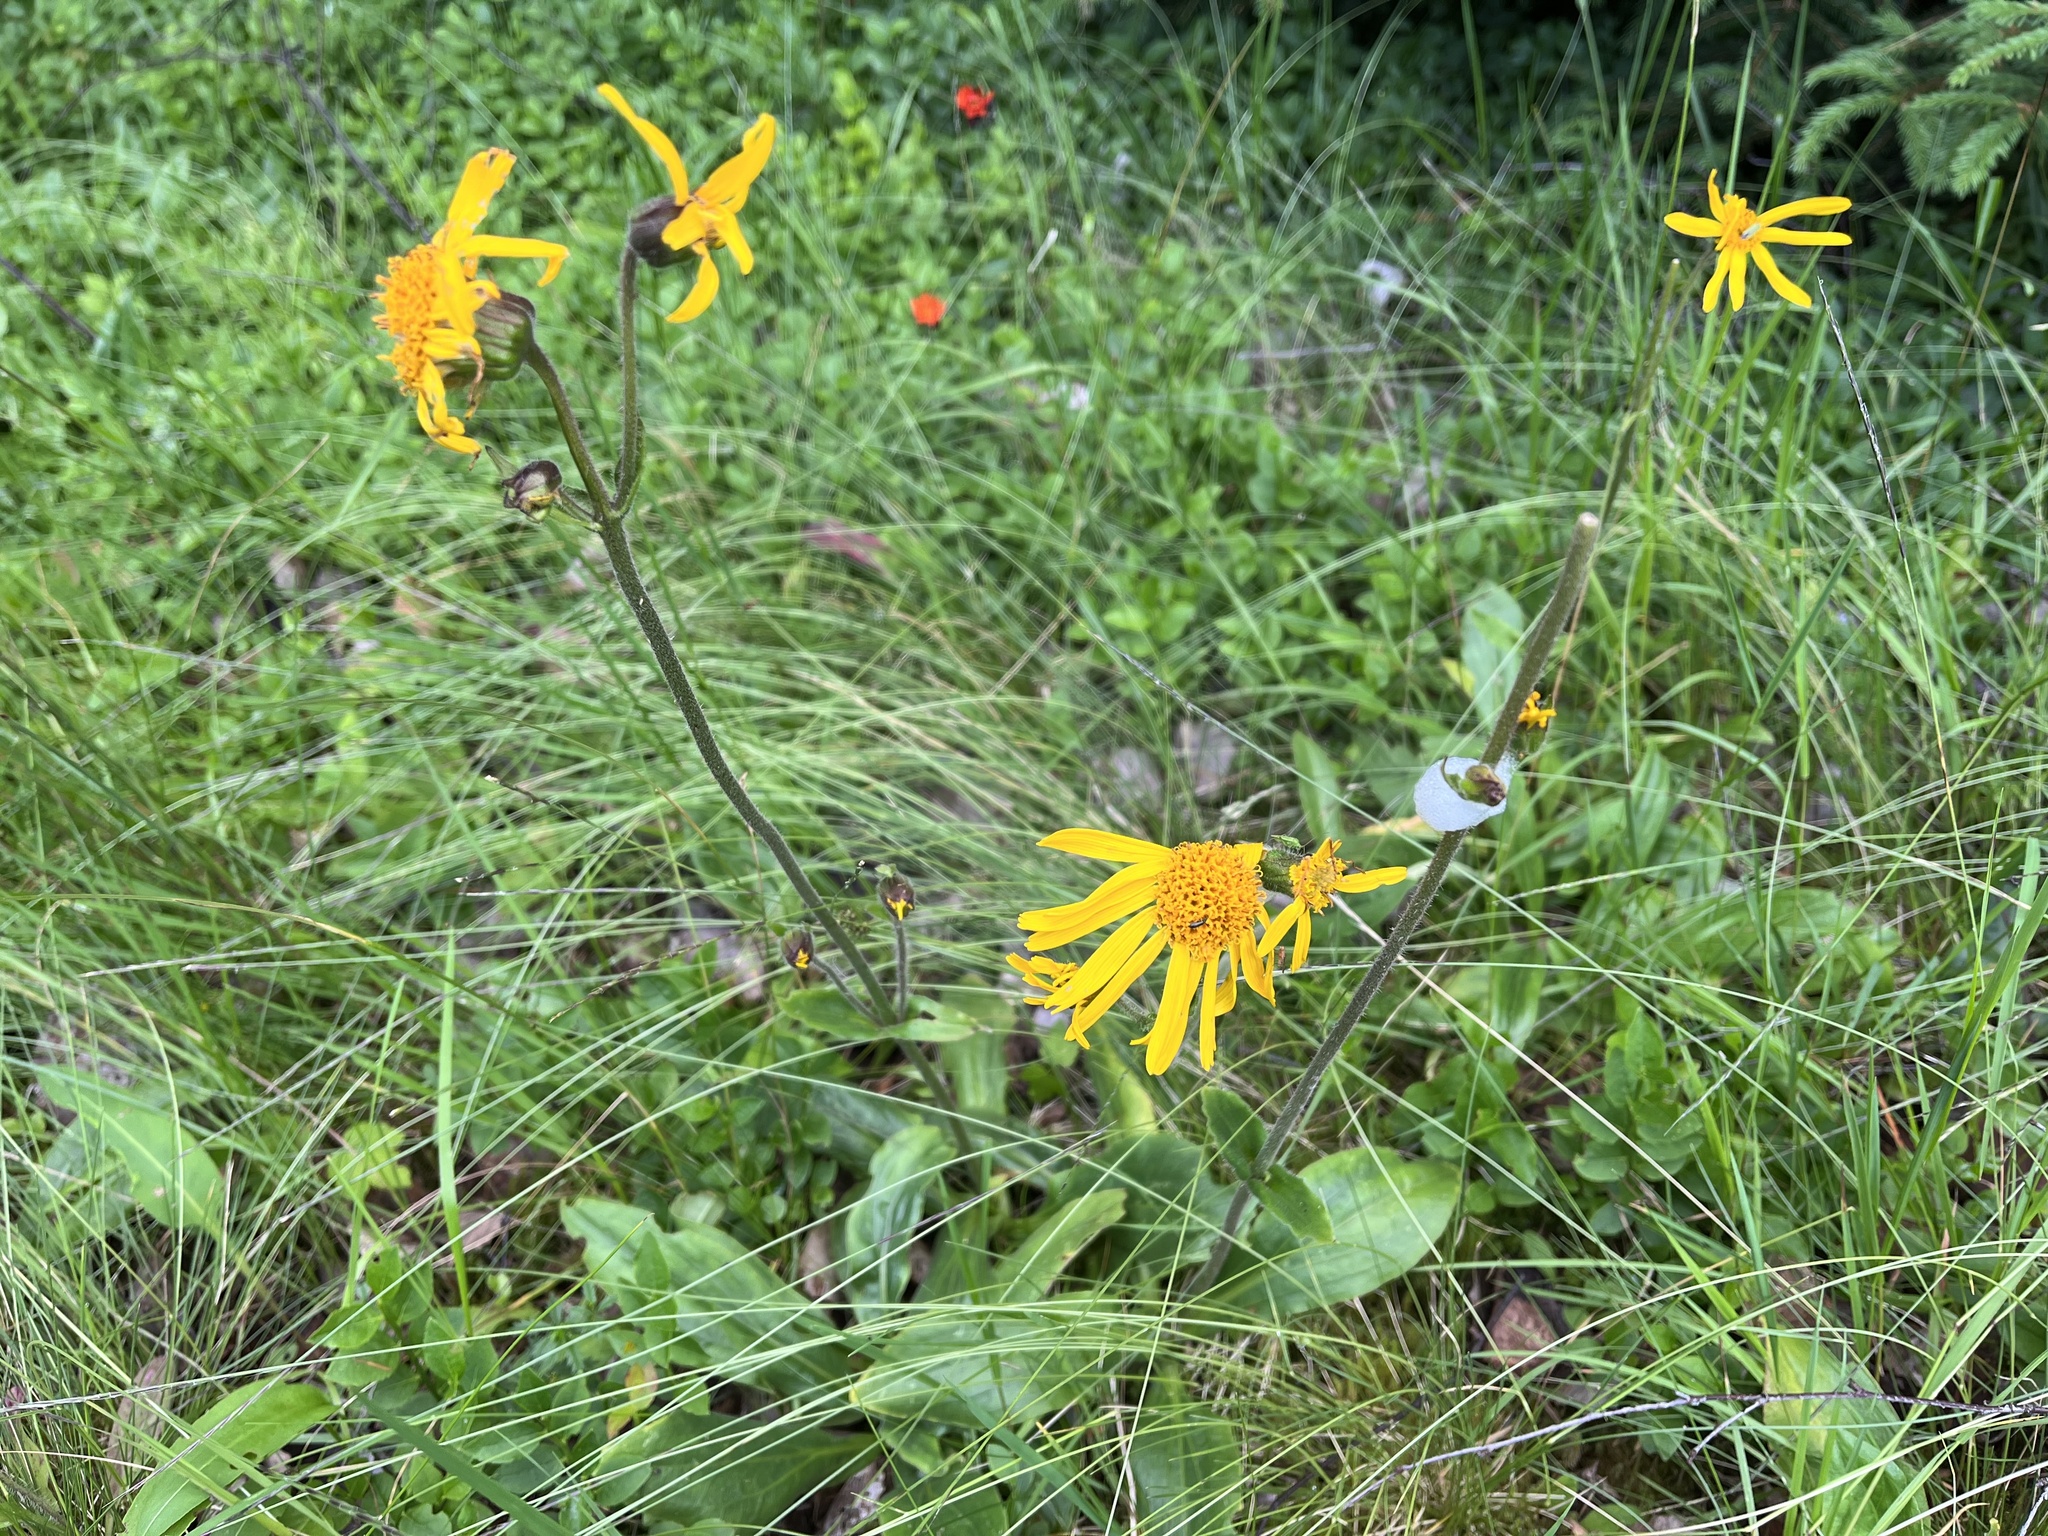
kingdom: Plantae
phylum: Tracheophyta
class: Magnoliopsida
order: Asterales
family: Asteraceae
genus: Arnica
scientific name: Arnica montana
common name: Leopard's bane
